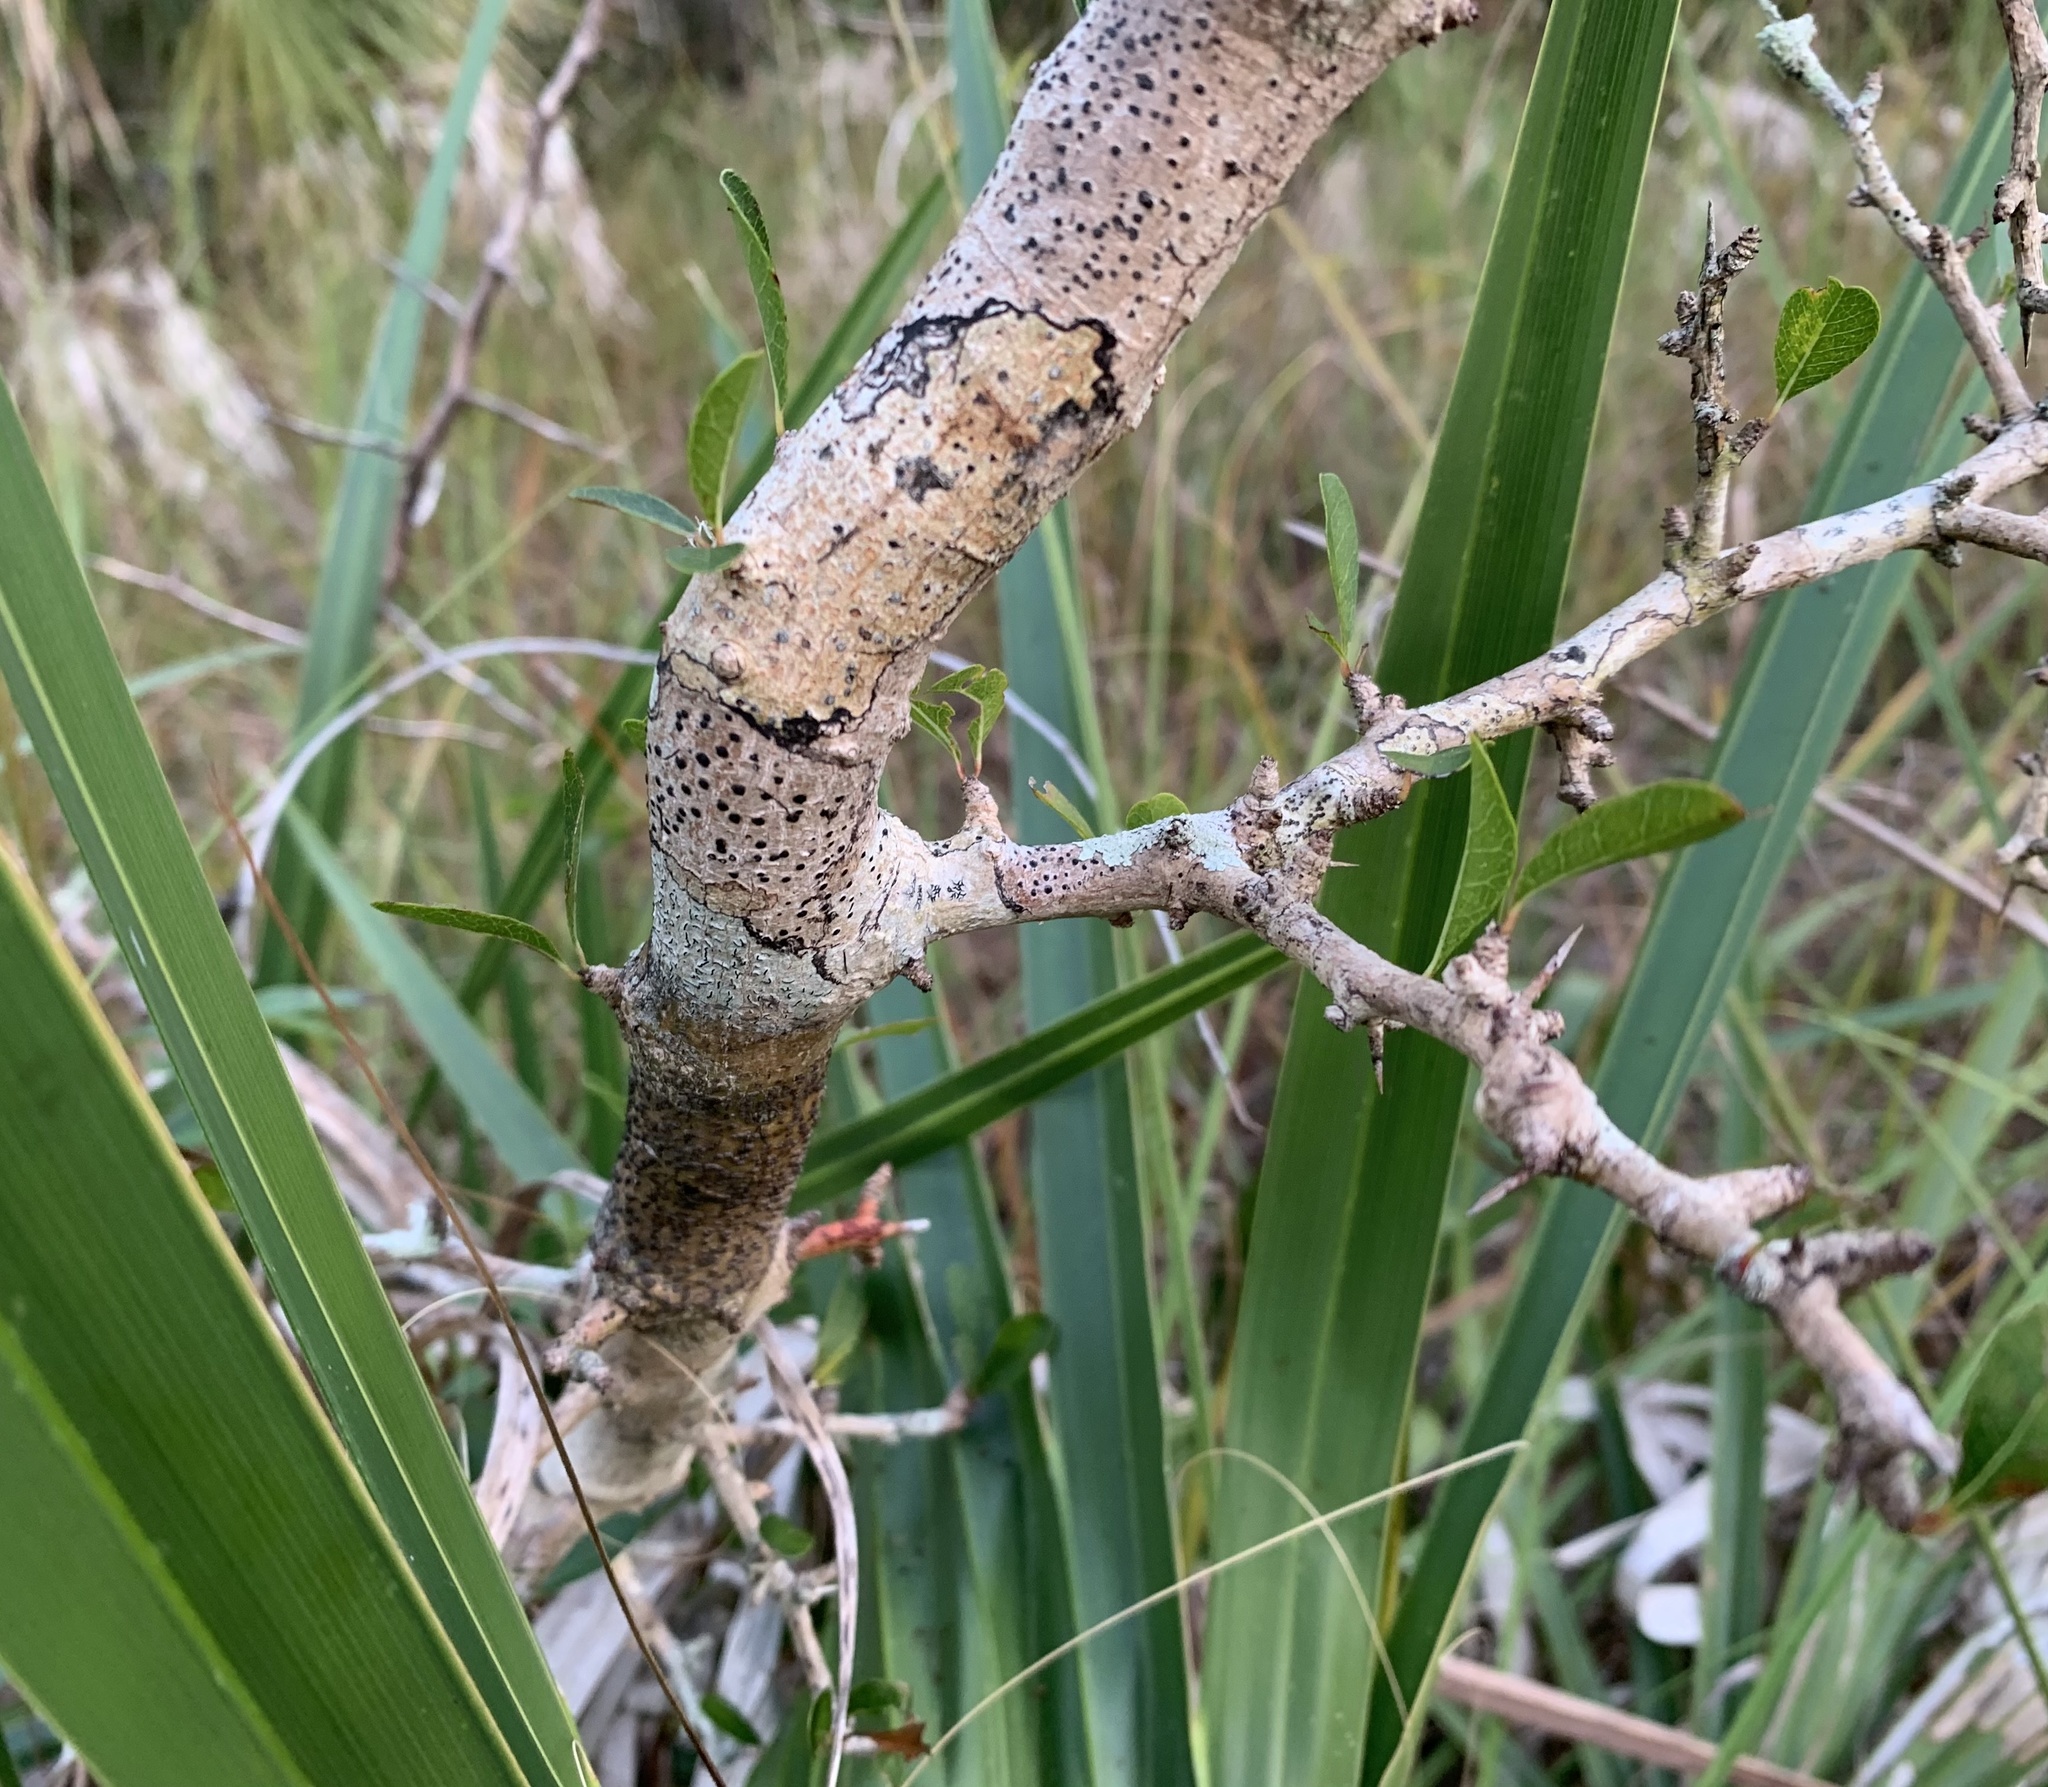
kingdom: Plantae
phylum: Tracheophyta
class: Magnoliopsida
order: Ericales
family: Sapotaceae
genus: Sideroxylon
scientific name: Sideroxylon reclinatum
